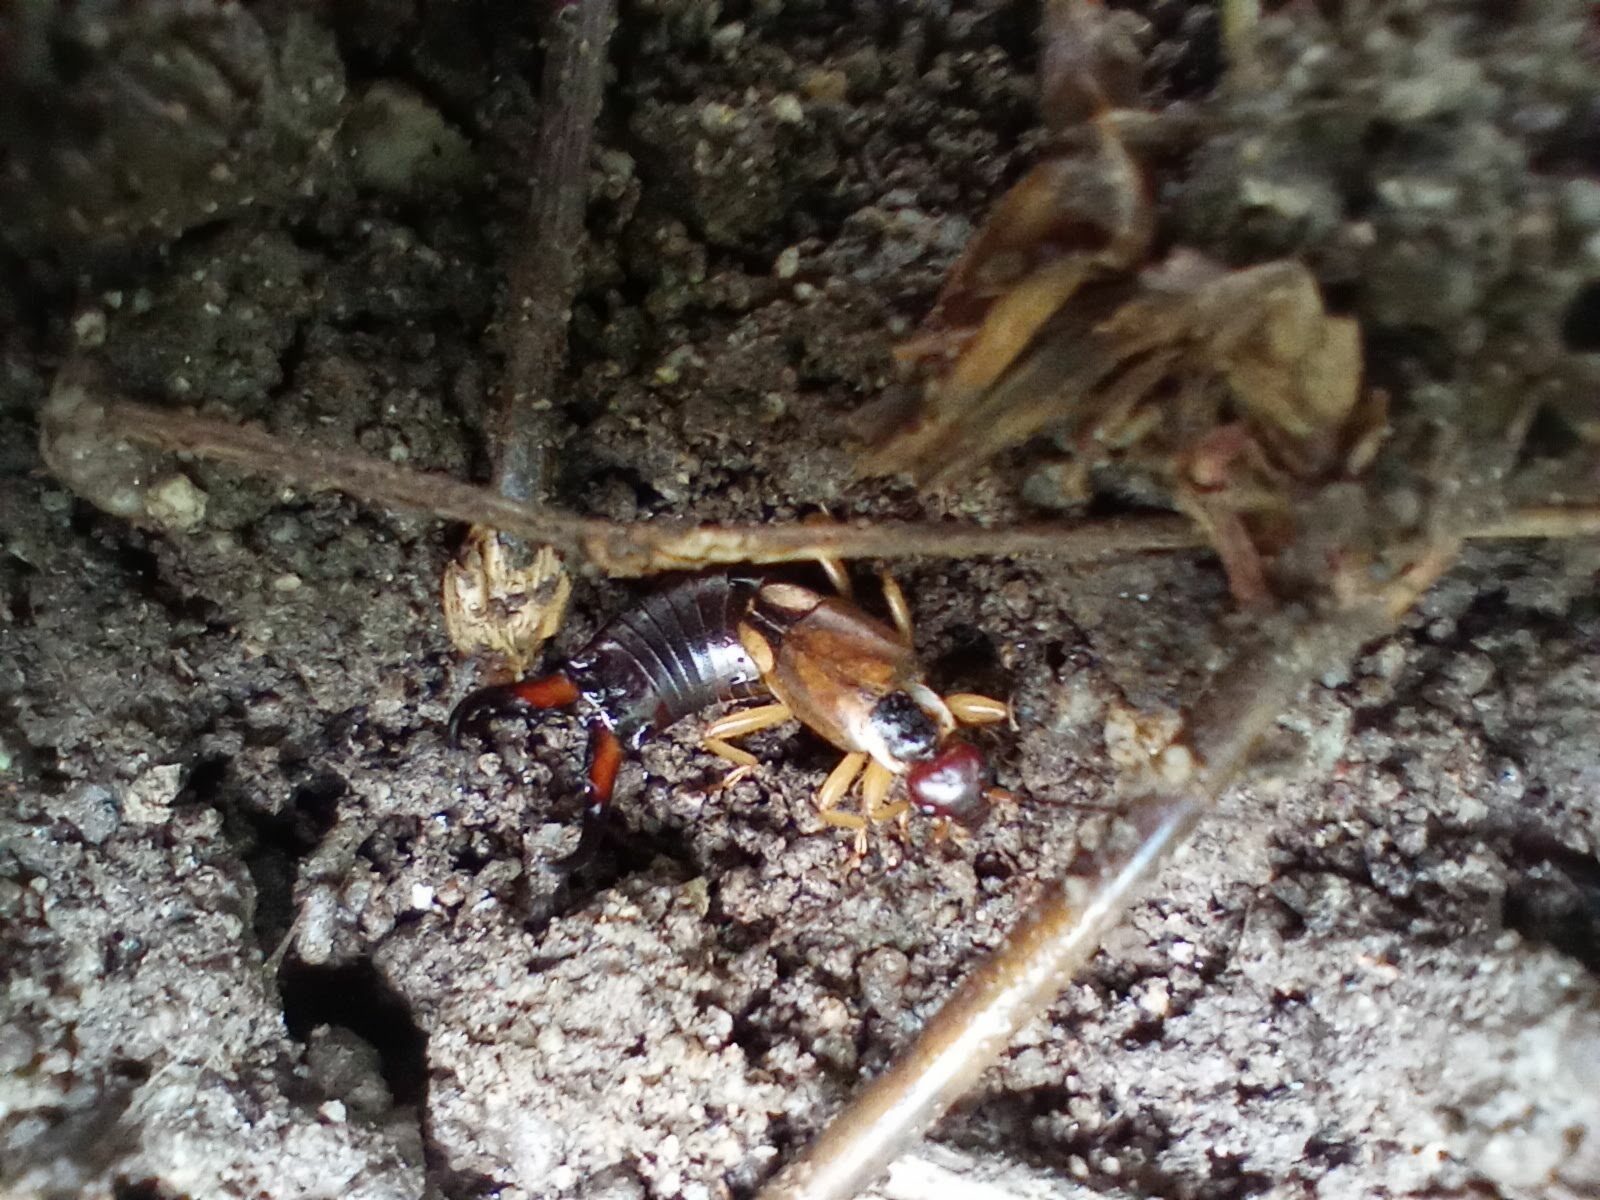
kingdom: Animalia
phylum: Arthropoda
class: Insecta
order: Dermaptera
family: Forficulidae
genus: Forficula
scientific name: Forficula dentata
